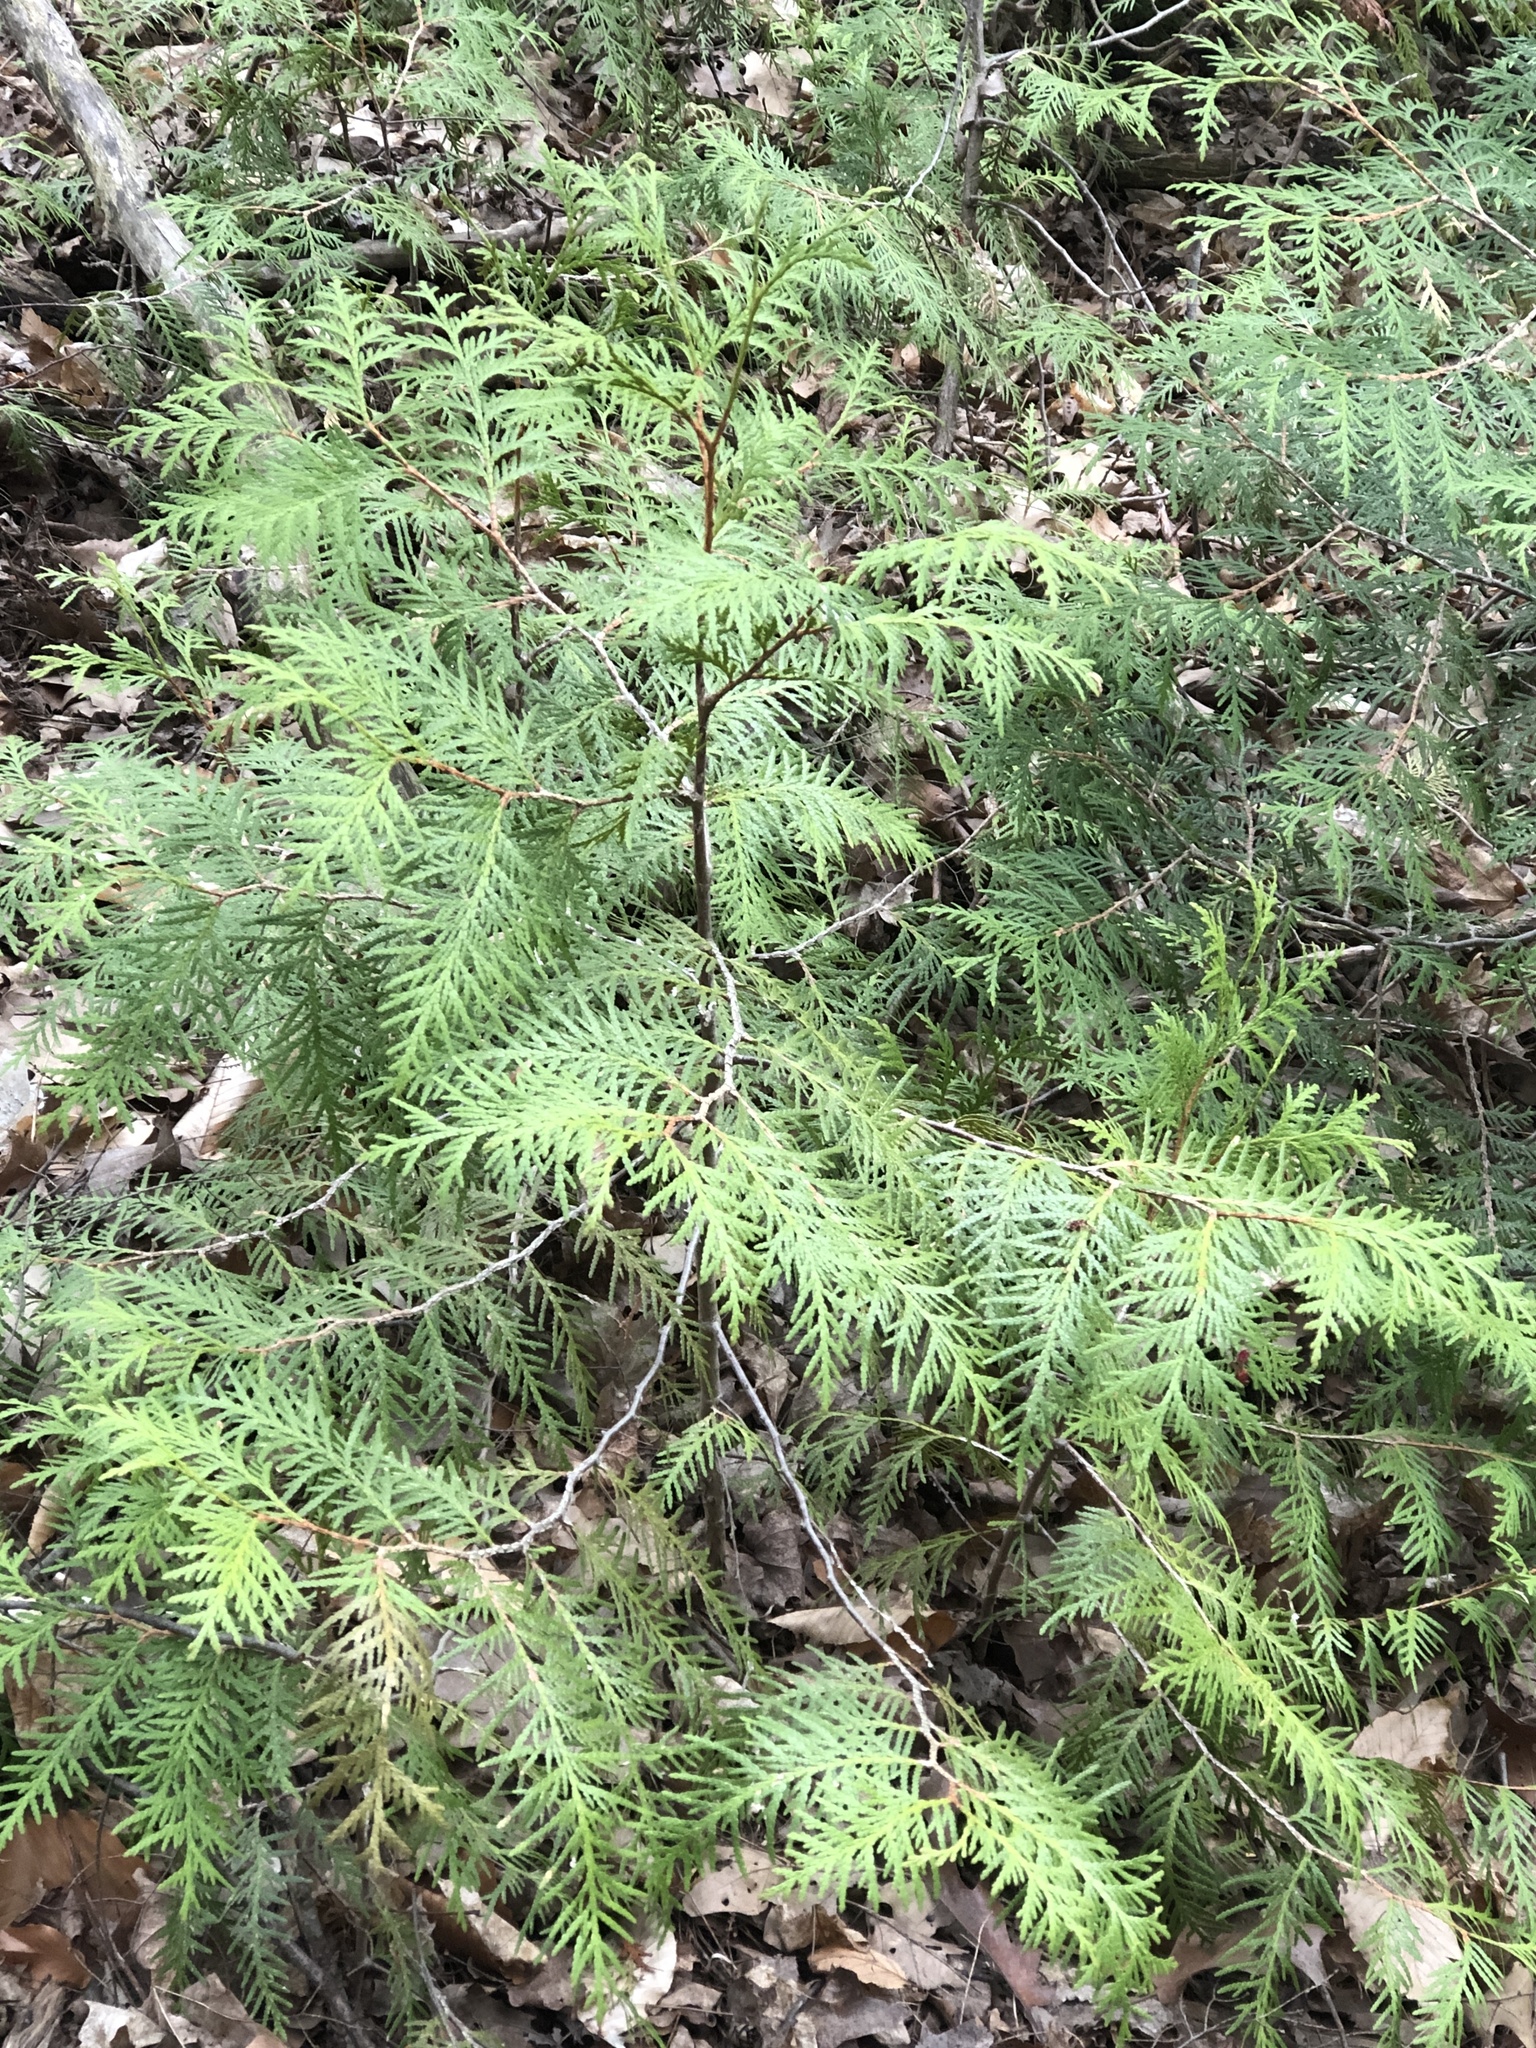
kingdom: Plantae
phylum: Tracheophyta
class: Pinopsida
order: Pinales
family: Cupressaceae
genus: Thuja
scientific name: Thuja occidentalis
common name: Northern white-cedar
